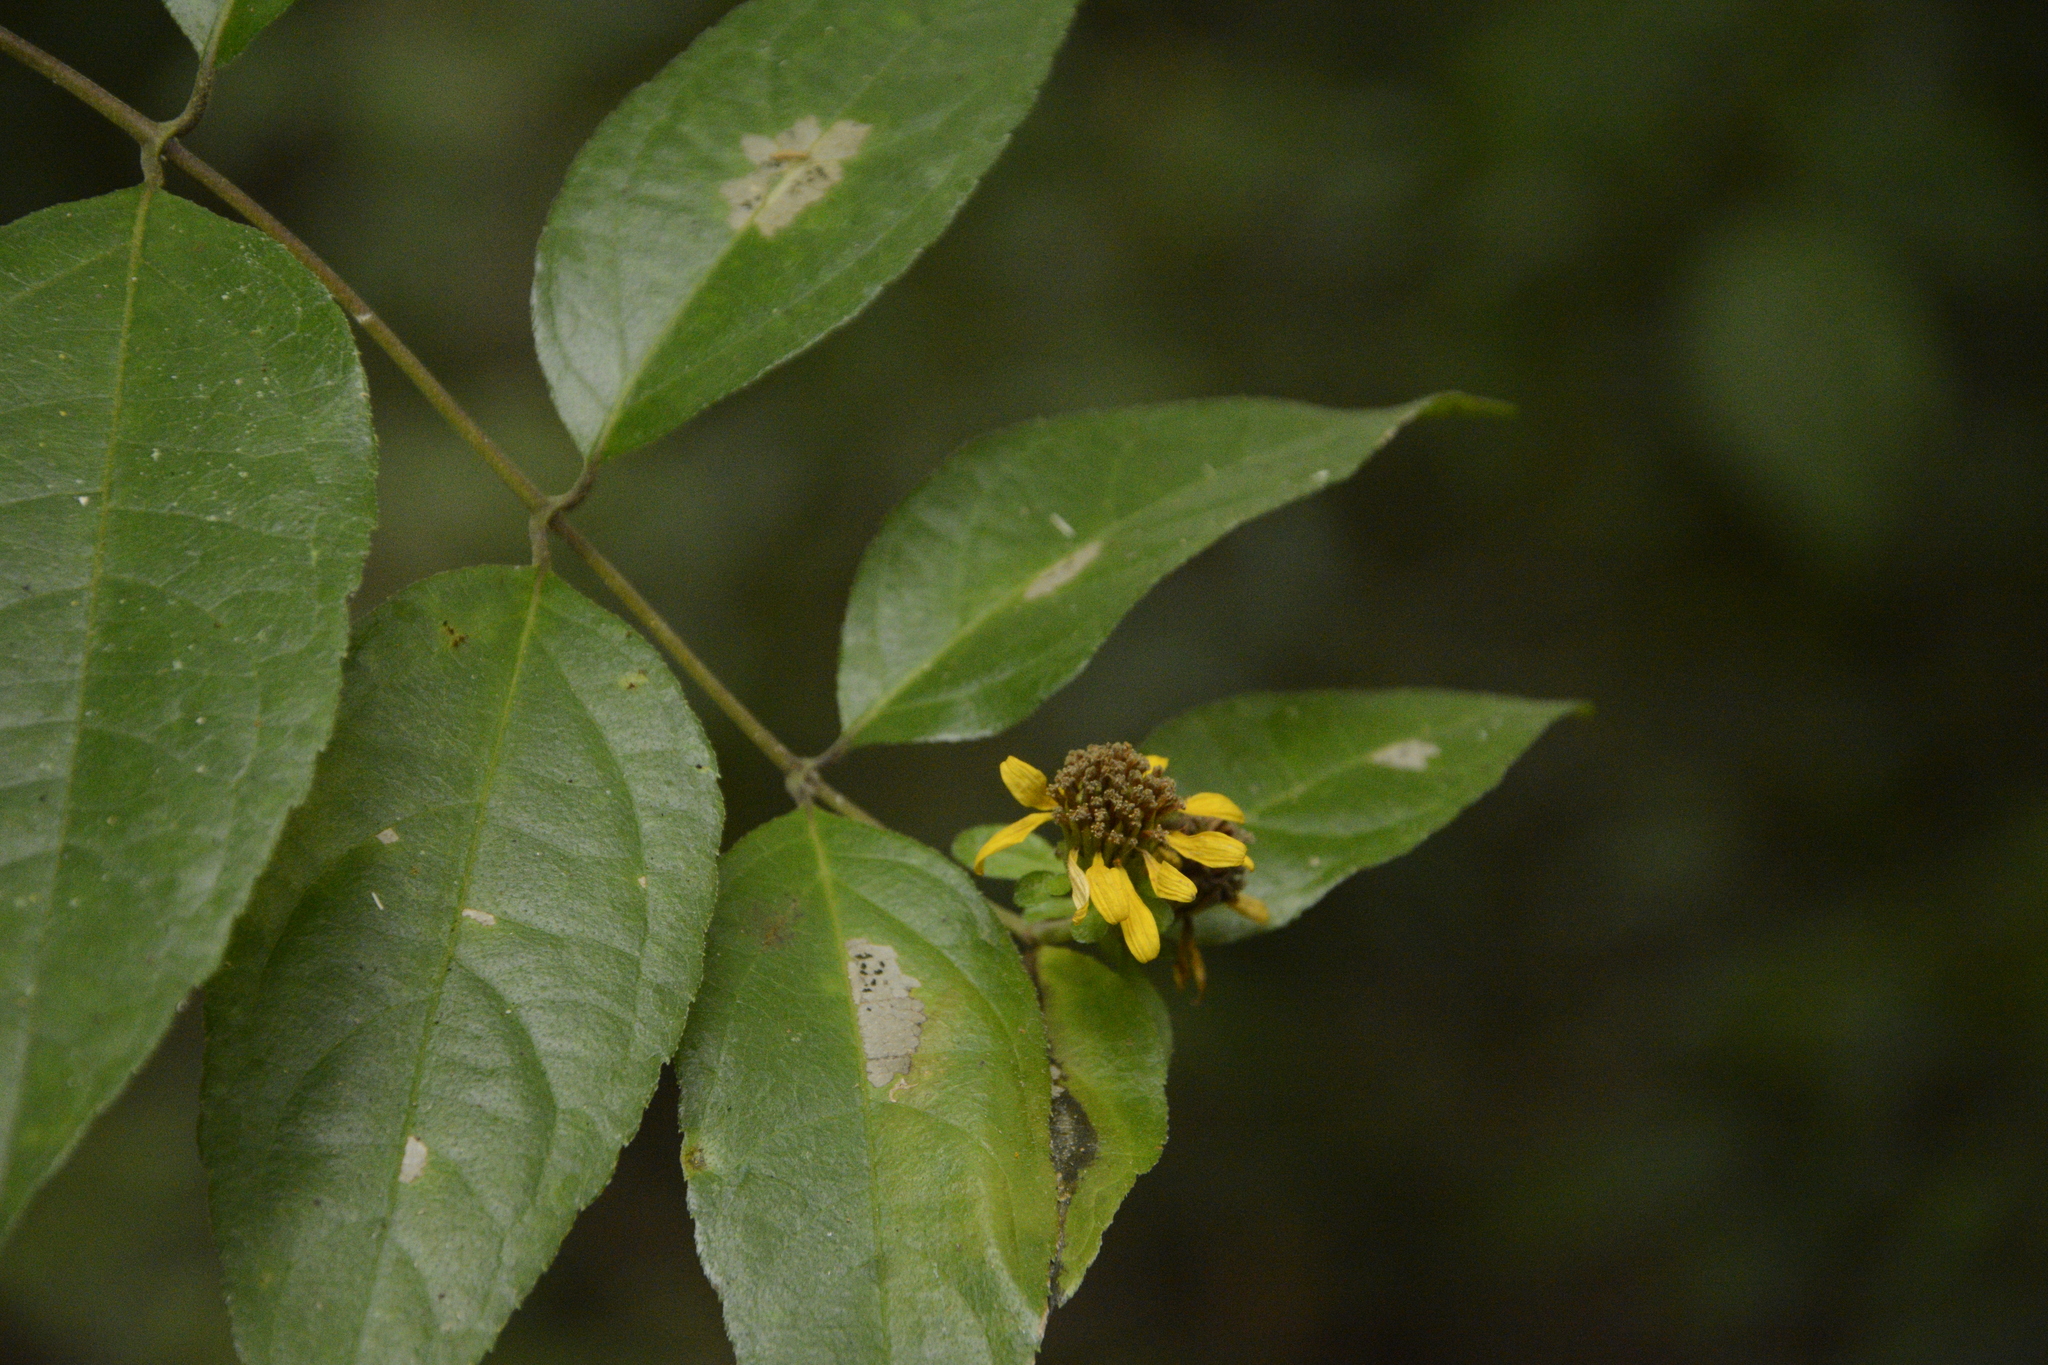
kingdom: Plantae
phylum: Tracheophyta
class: Magnoliopsida
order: Asterales
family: Asteraceae
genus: Otopappus
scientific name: Otopappus scaber
